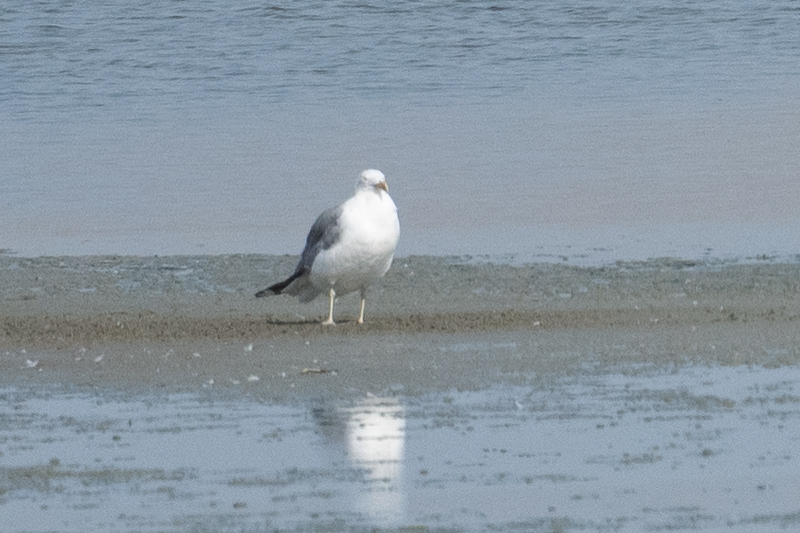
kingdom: Animalia
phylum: Chordata
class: Aves
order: Charadriiformes
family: Laridae
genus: Larus
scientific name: Larus californicus
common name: California gull
